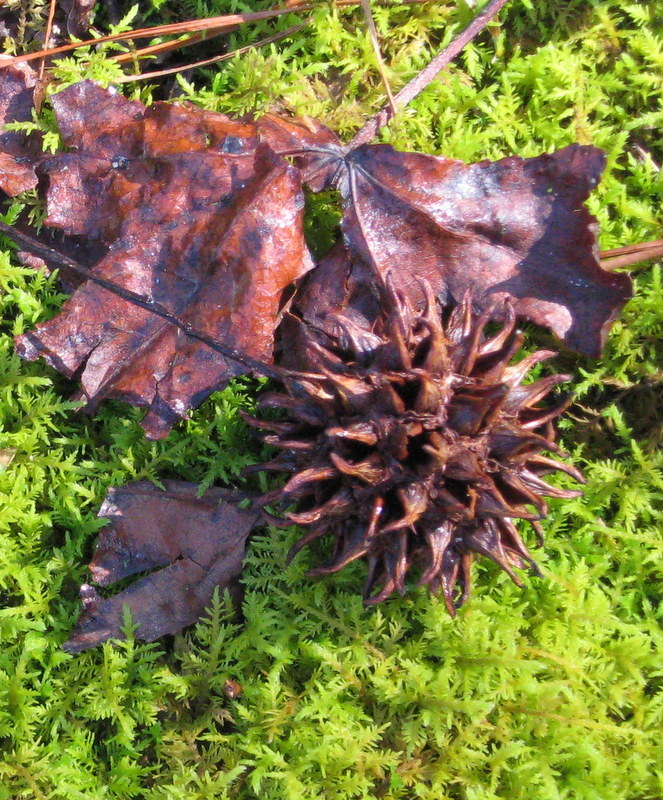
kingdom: Plantae
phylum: Tracheophyta
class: Magnoliopsida
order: Saxifragales
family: Altingiaceae
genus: Liquidambar
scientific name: Liquidambar styraciflua
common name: Sweet gum
